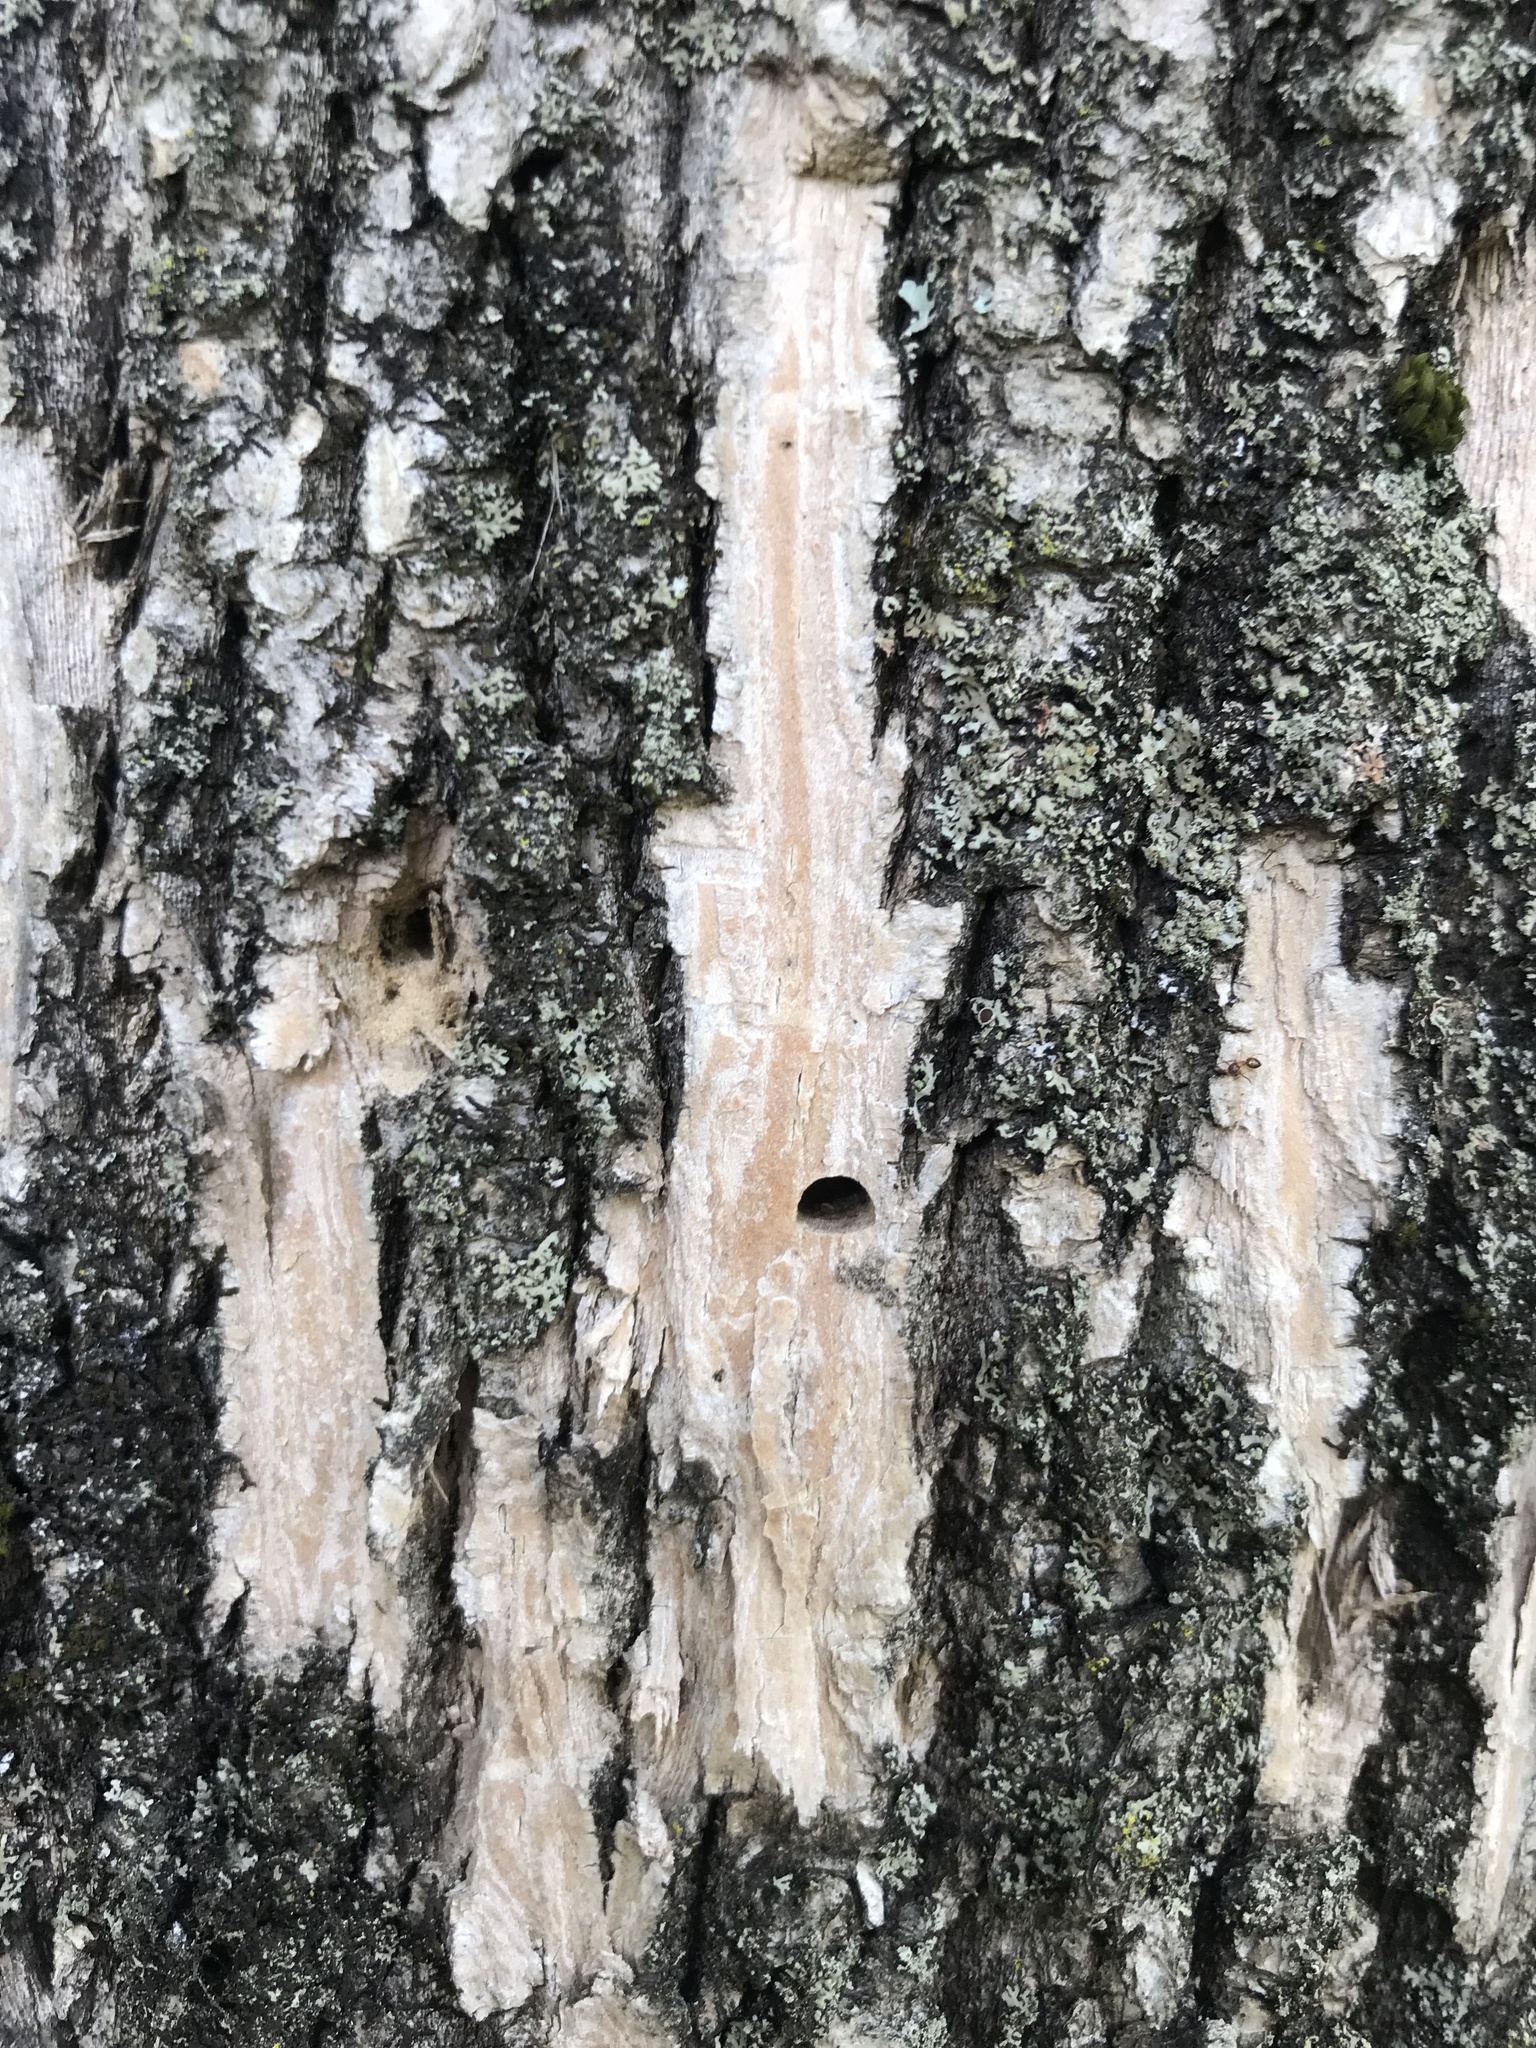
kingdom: Animalia
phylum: Arthropoda
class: Insecta
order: Coleoptera
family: Buprestidae
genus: Agrilus
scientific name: Agrilus planipennis
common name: Emerald ash borer
